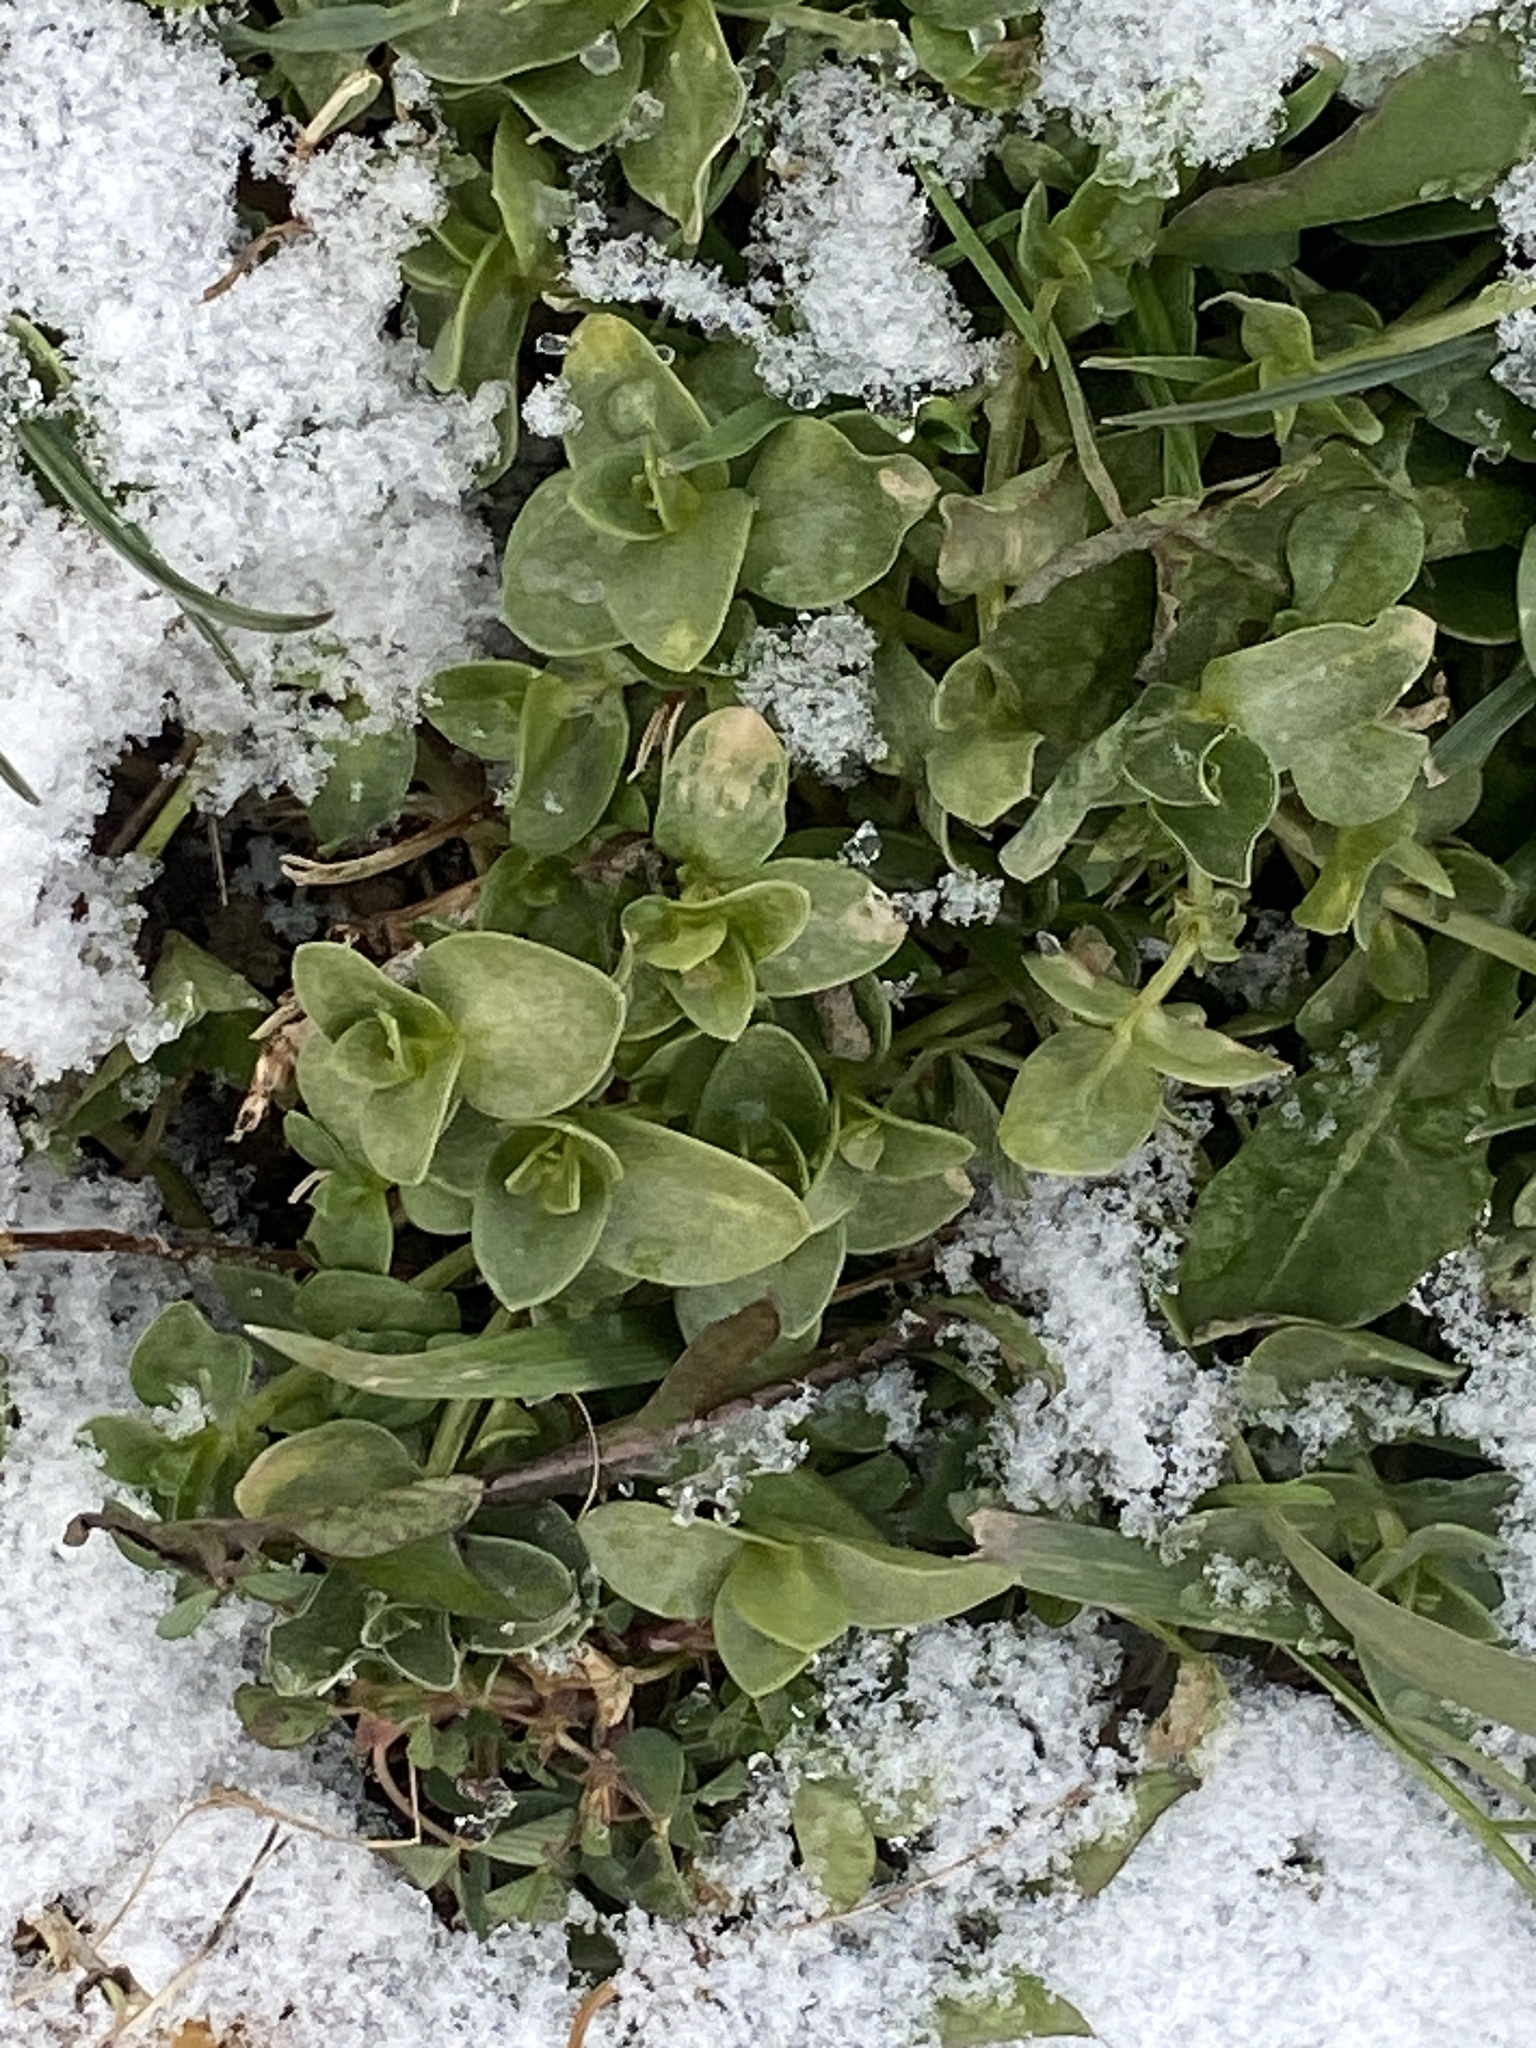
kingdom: Plantae
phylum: Tracheophyta
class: Magnoliopsida
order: Lamiales
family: Plantaginaceae
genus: Veronica
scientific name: Veronica serpyllifolia
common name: Thyme-leaved speedwell
